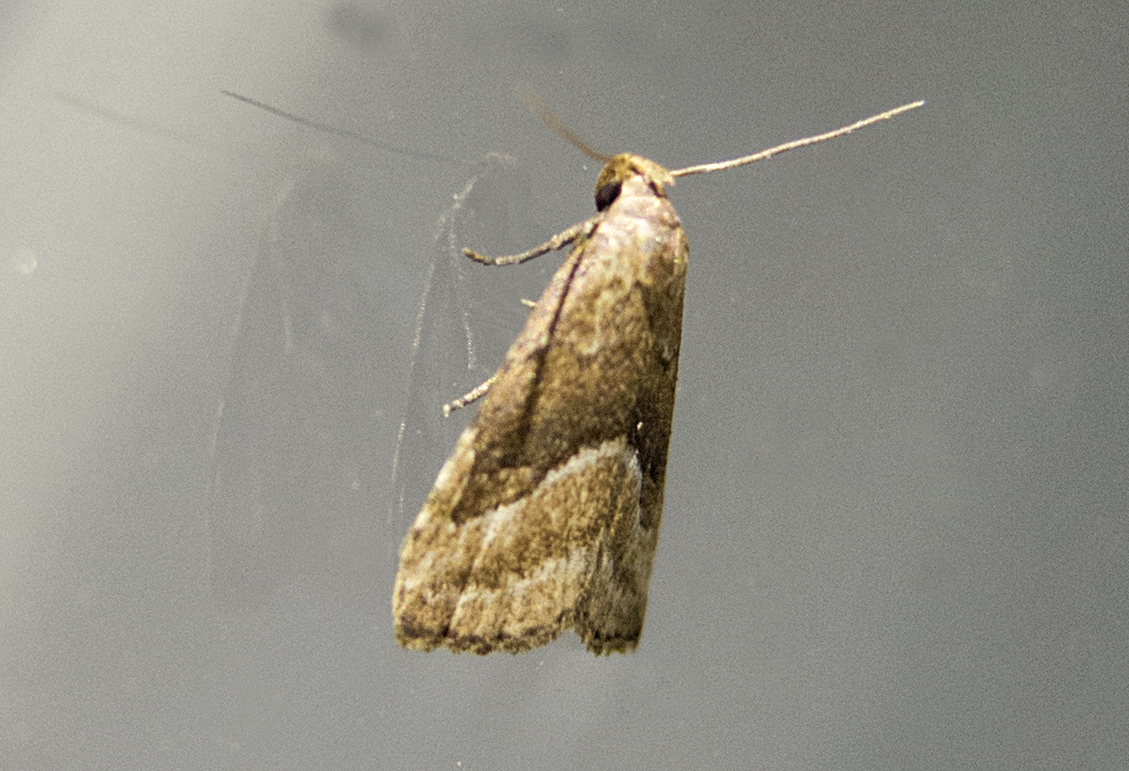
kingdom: Animalia
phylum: Arthropoda
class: Insecta
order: Lepidoptera
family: Erebidae
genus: Schrankia
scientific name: Schrankia taenialis
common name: White-line snout
